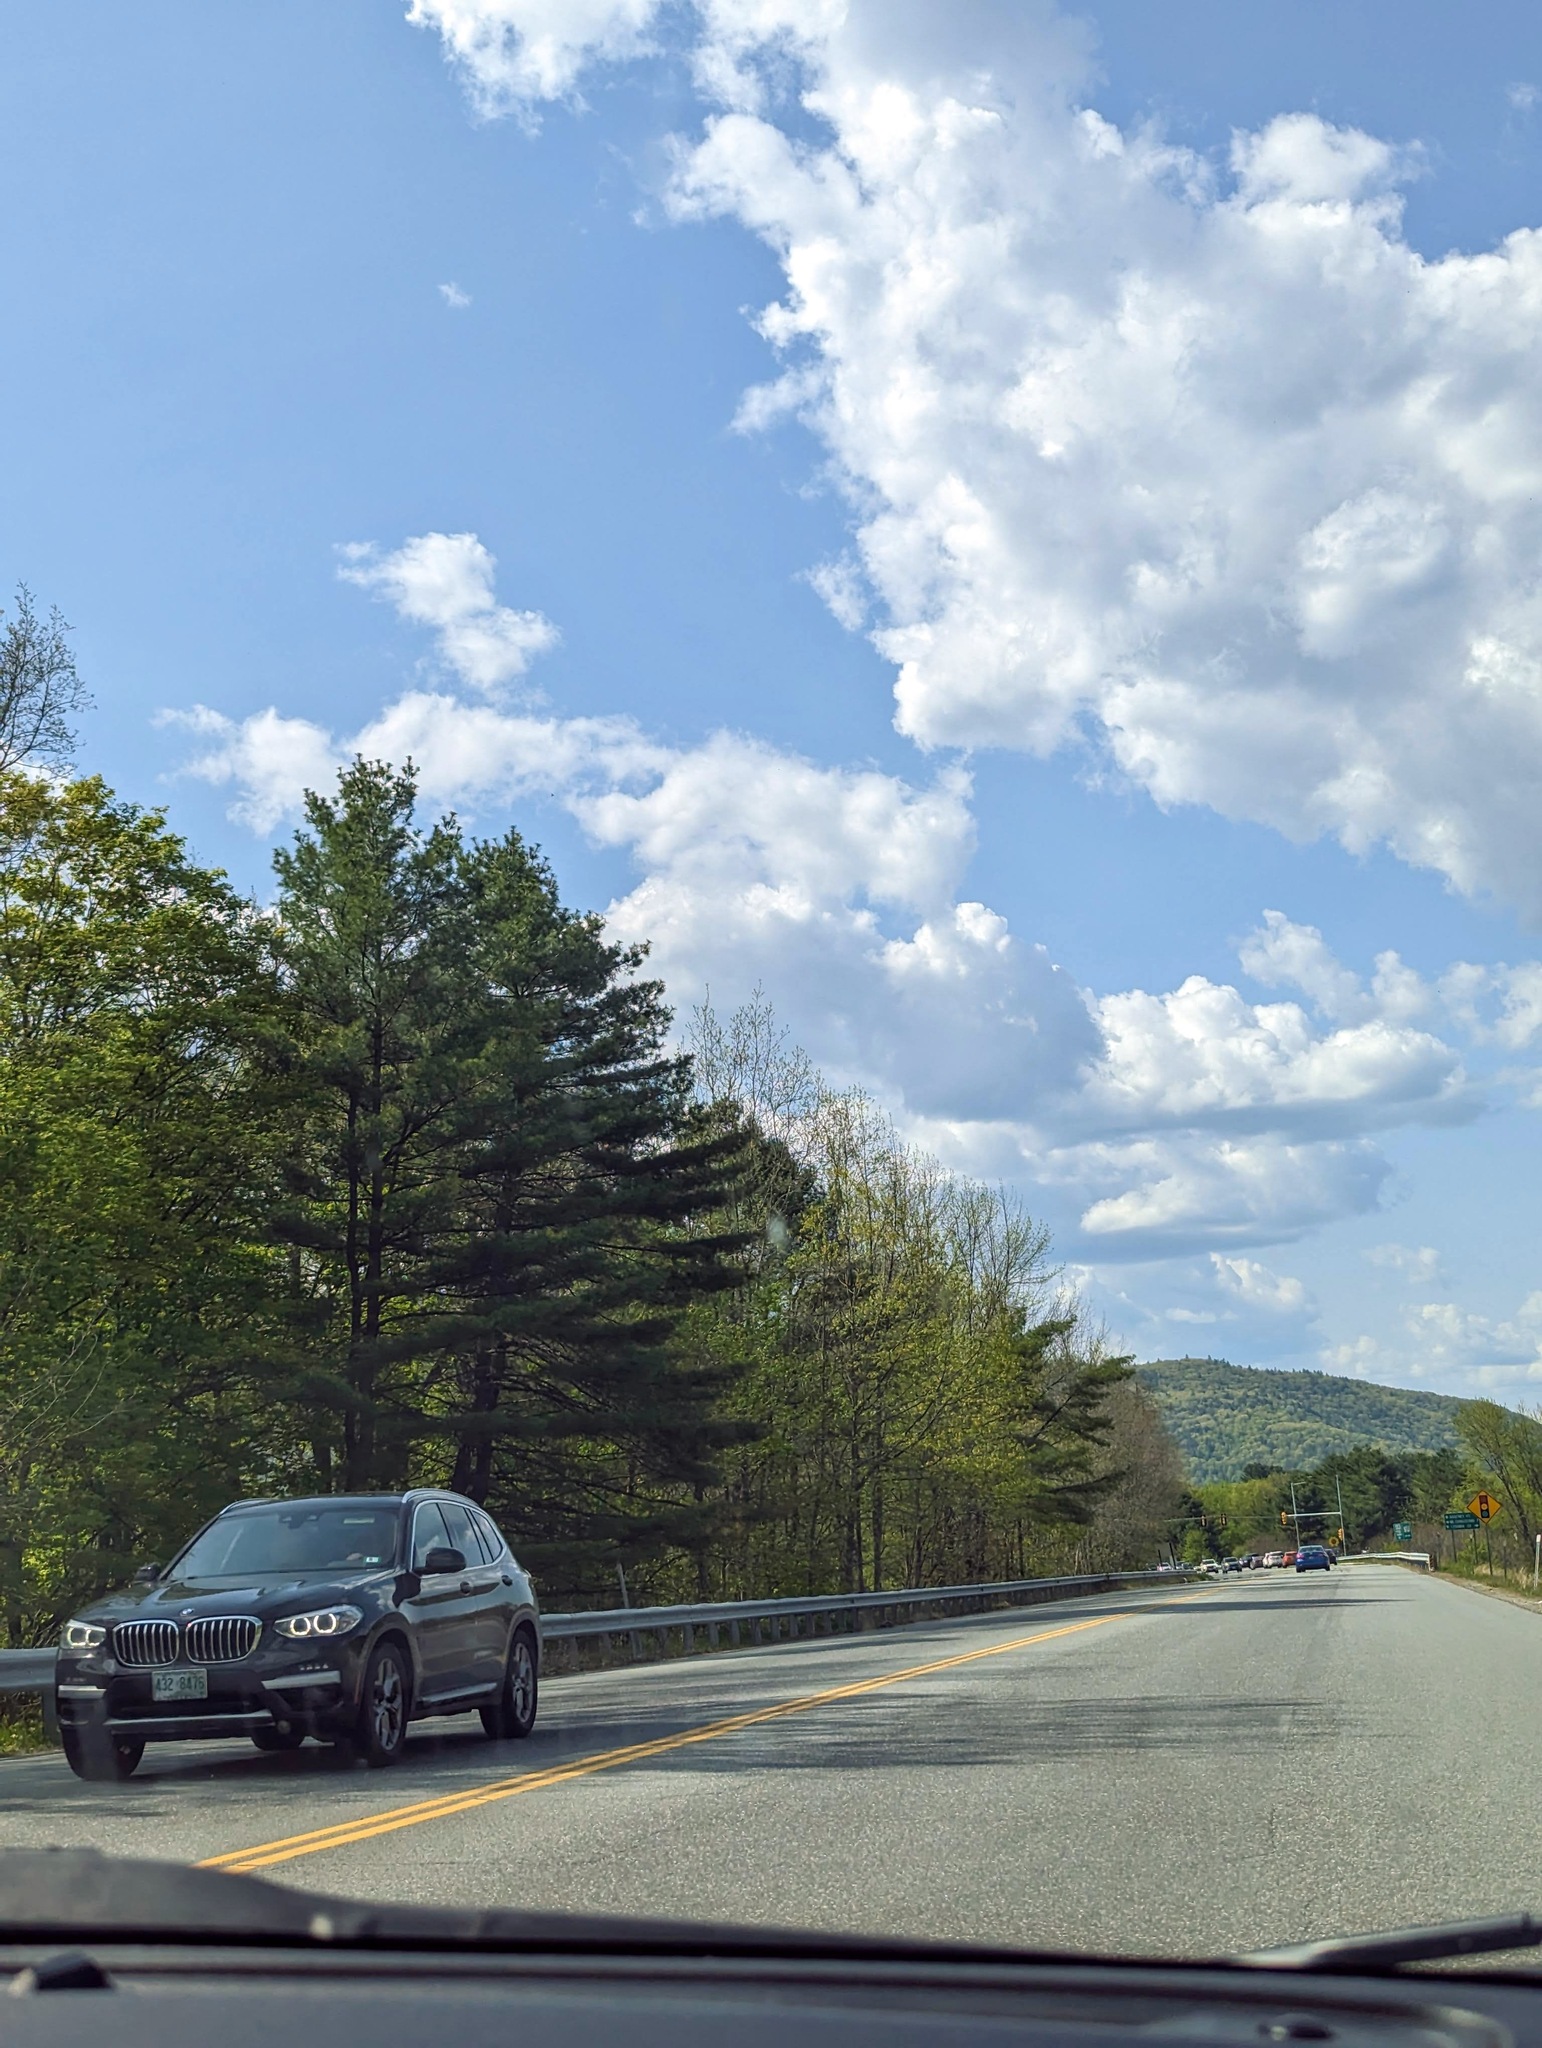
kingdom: Plantae
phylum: Tracheophyta
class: Pinopsida
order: Pinales
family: Pinaceae
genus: Pinus
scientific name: Pinus strobus
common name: Weymouth pine
